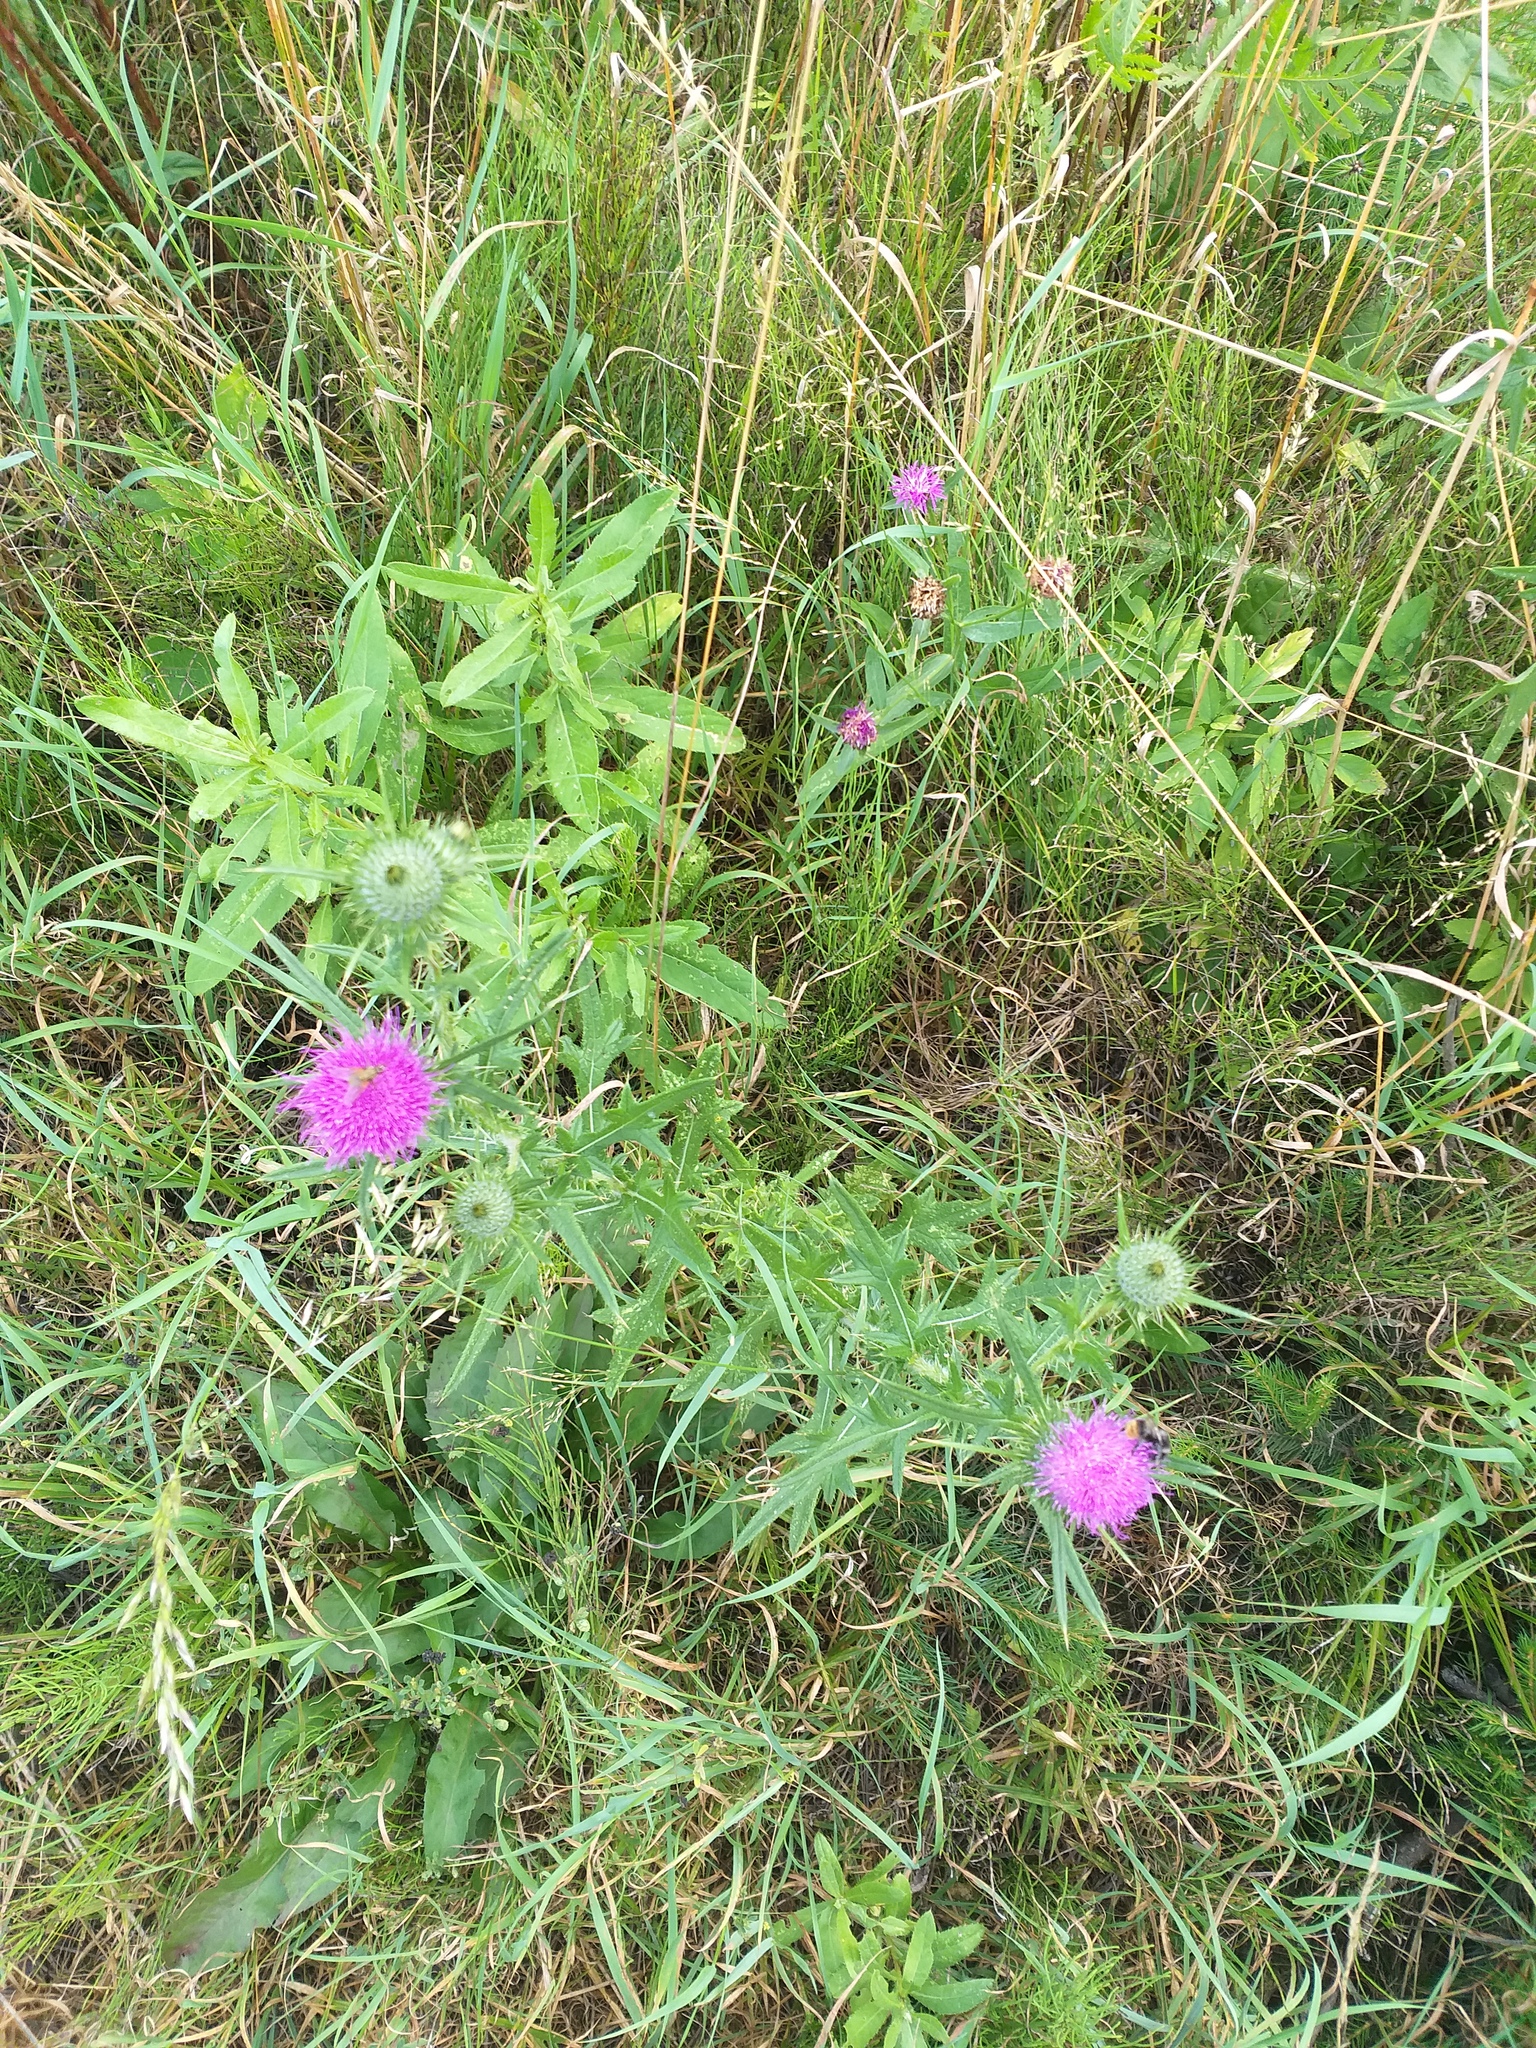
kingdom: Plantae
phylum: Tracheophyta
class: Magnoliopsida
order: Asterales
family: Asteraceae
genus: Cirsium
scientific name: Cirsium vulgare
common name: Bull thistle
